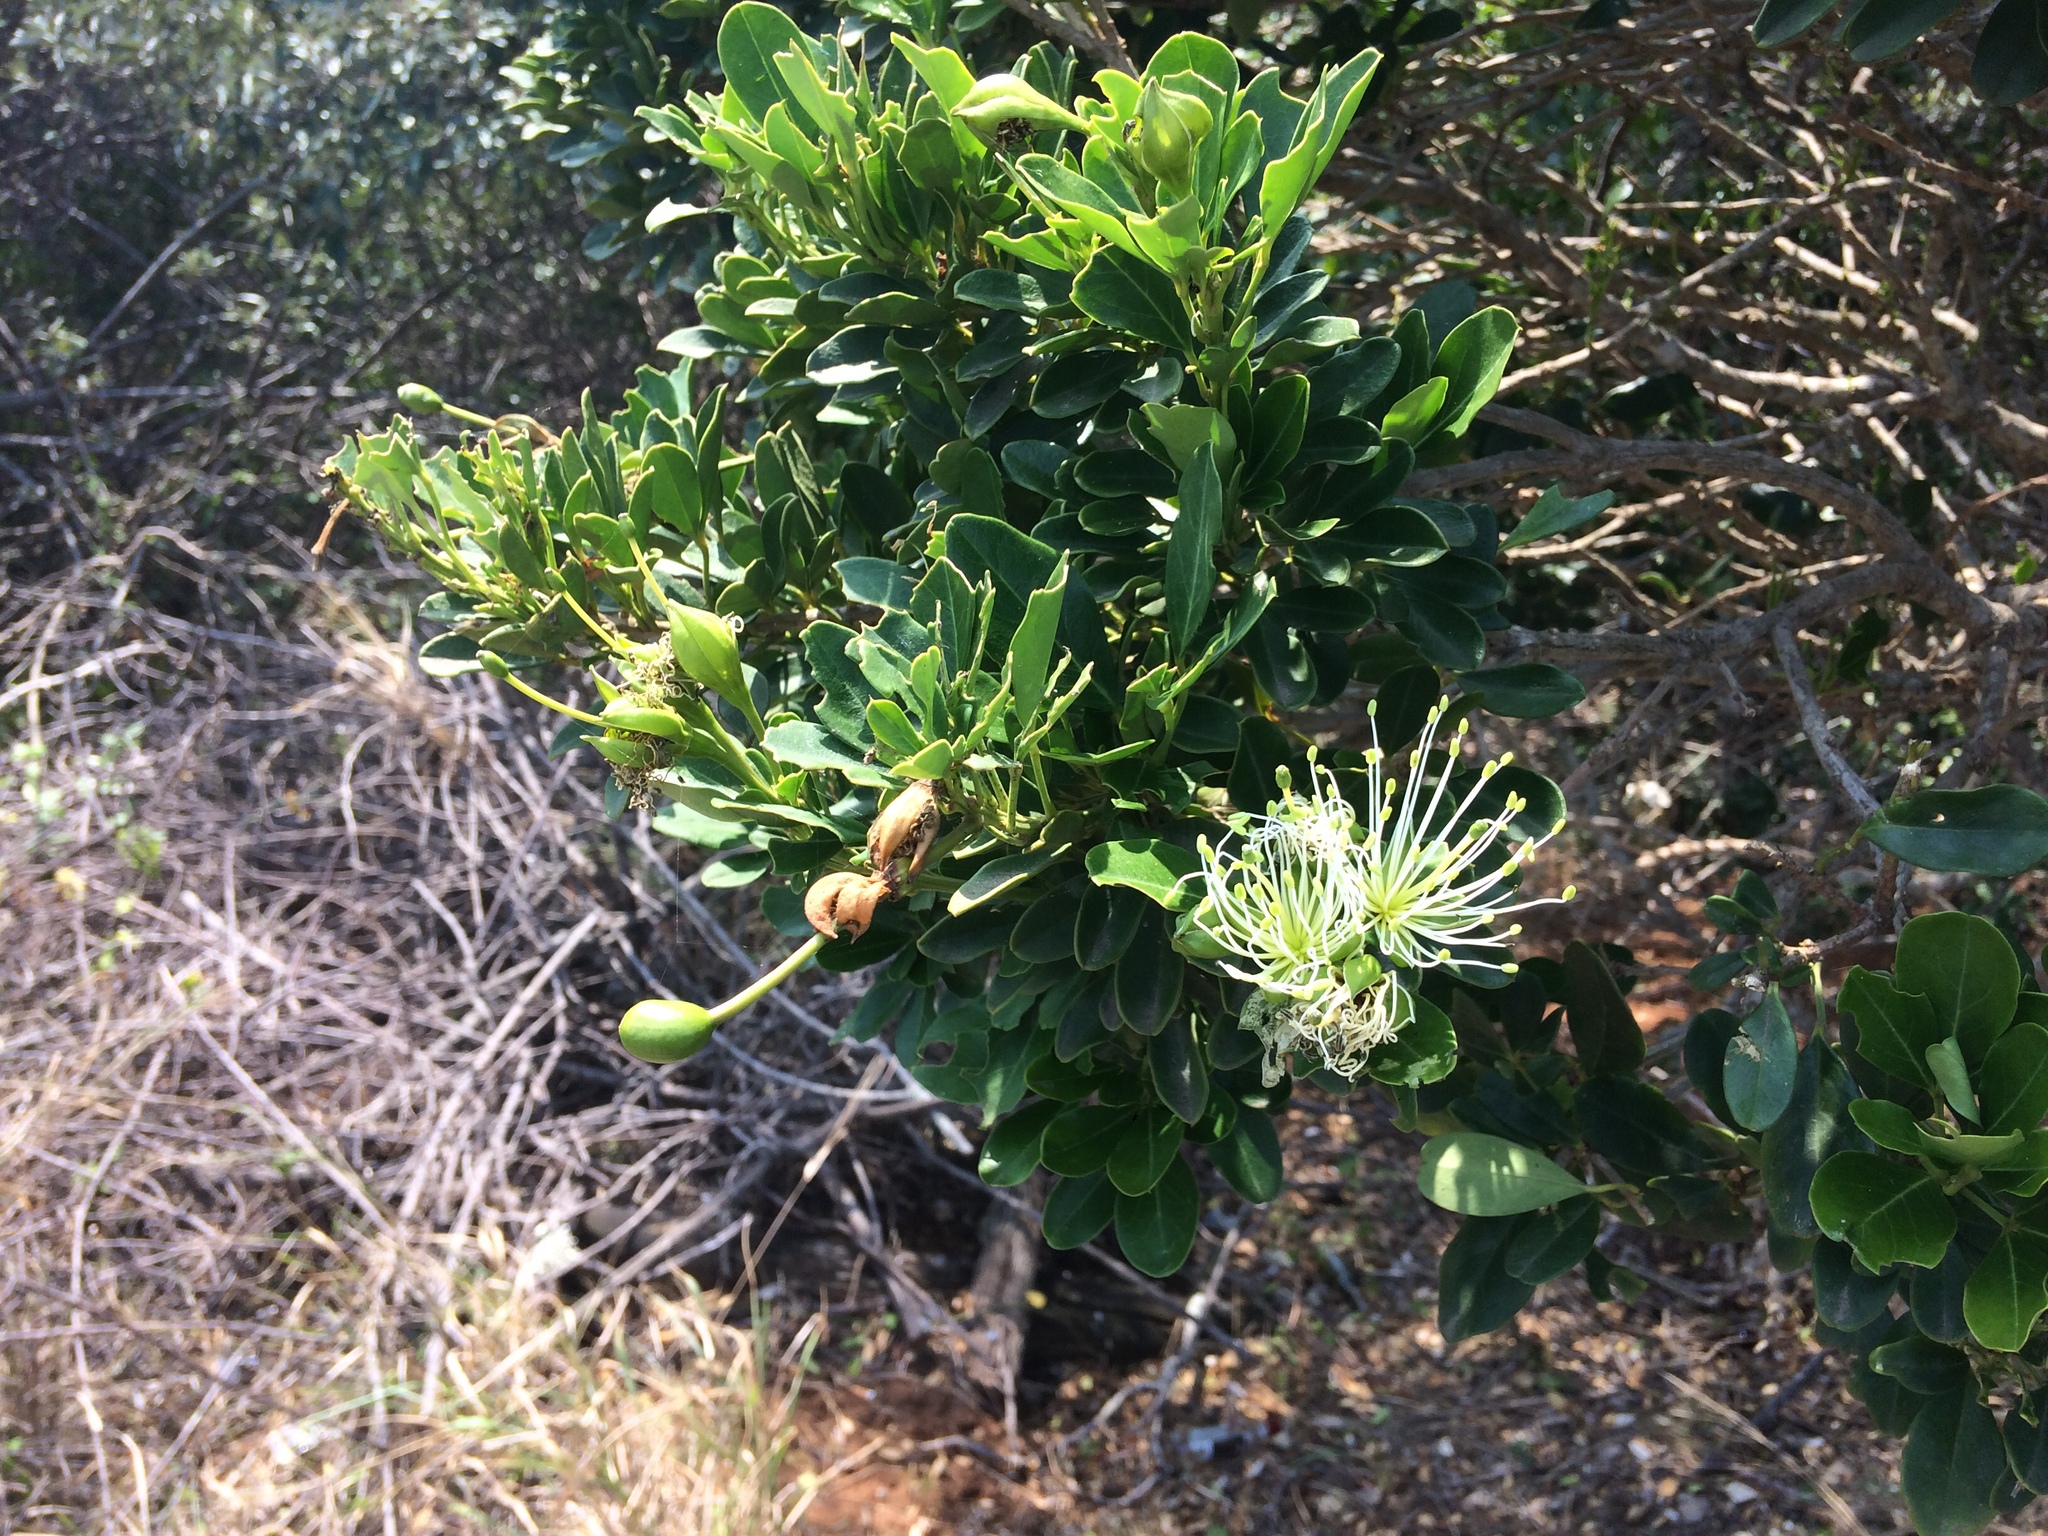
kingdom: Plantae
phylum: Tracheophyta
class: Magnoliopsida
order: Brassicales
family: Capparaceae
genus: Maerua
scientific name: Maerua cafra
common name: Bush maerua
